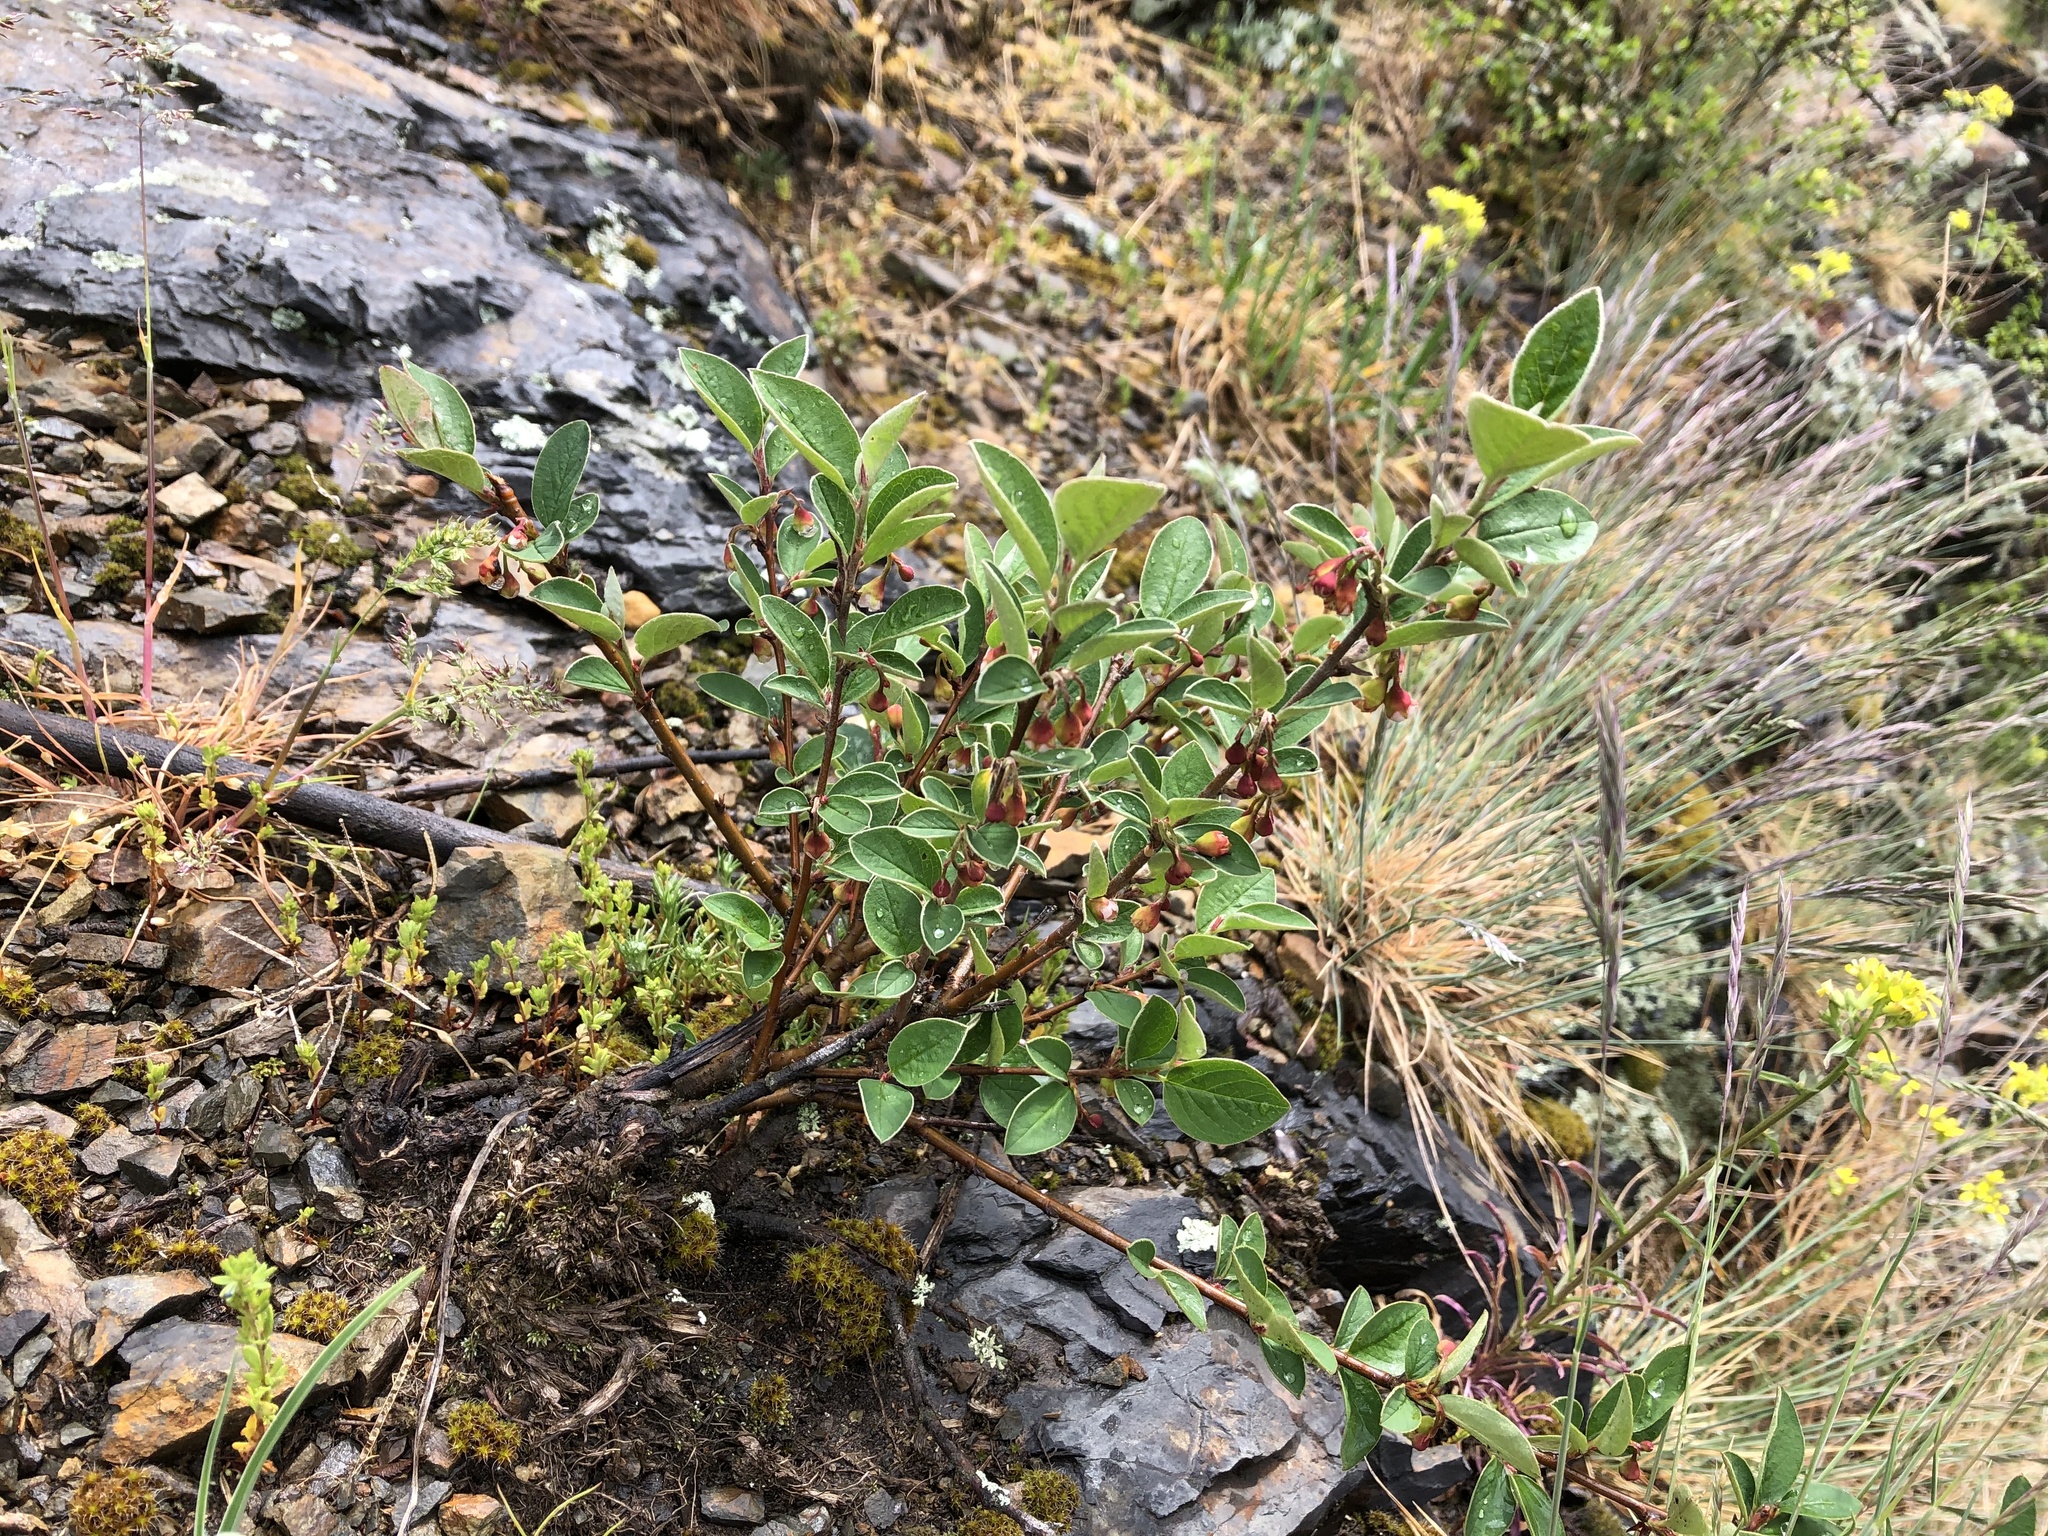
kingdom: Plantae
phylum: Tracheophyta
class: Magnoliopsida
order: Rosales
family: Rosaceae
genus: Cotoneaster
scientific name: Cotoneaster integerrimus
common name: Wild cotoneaster
